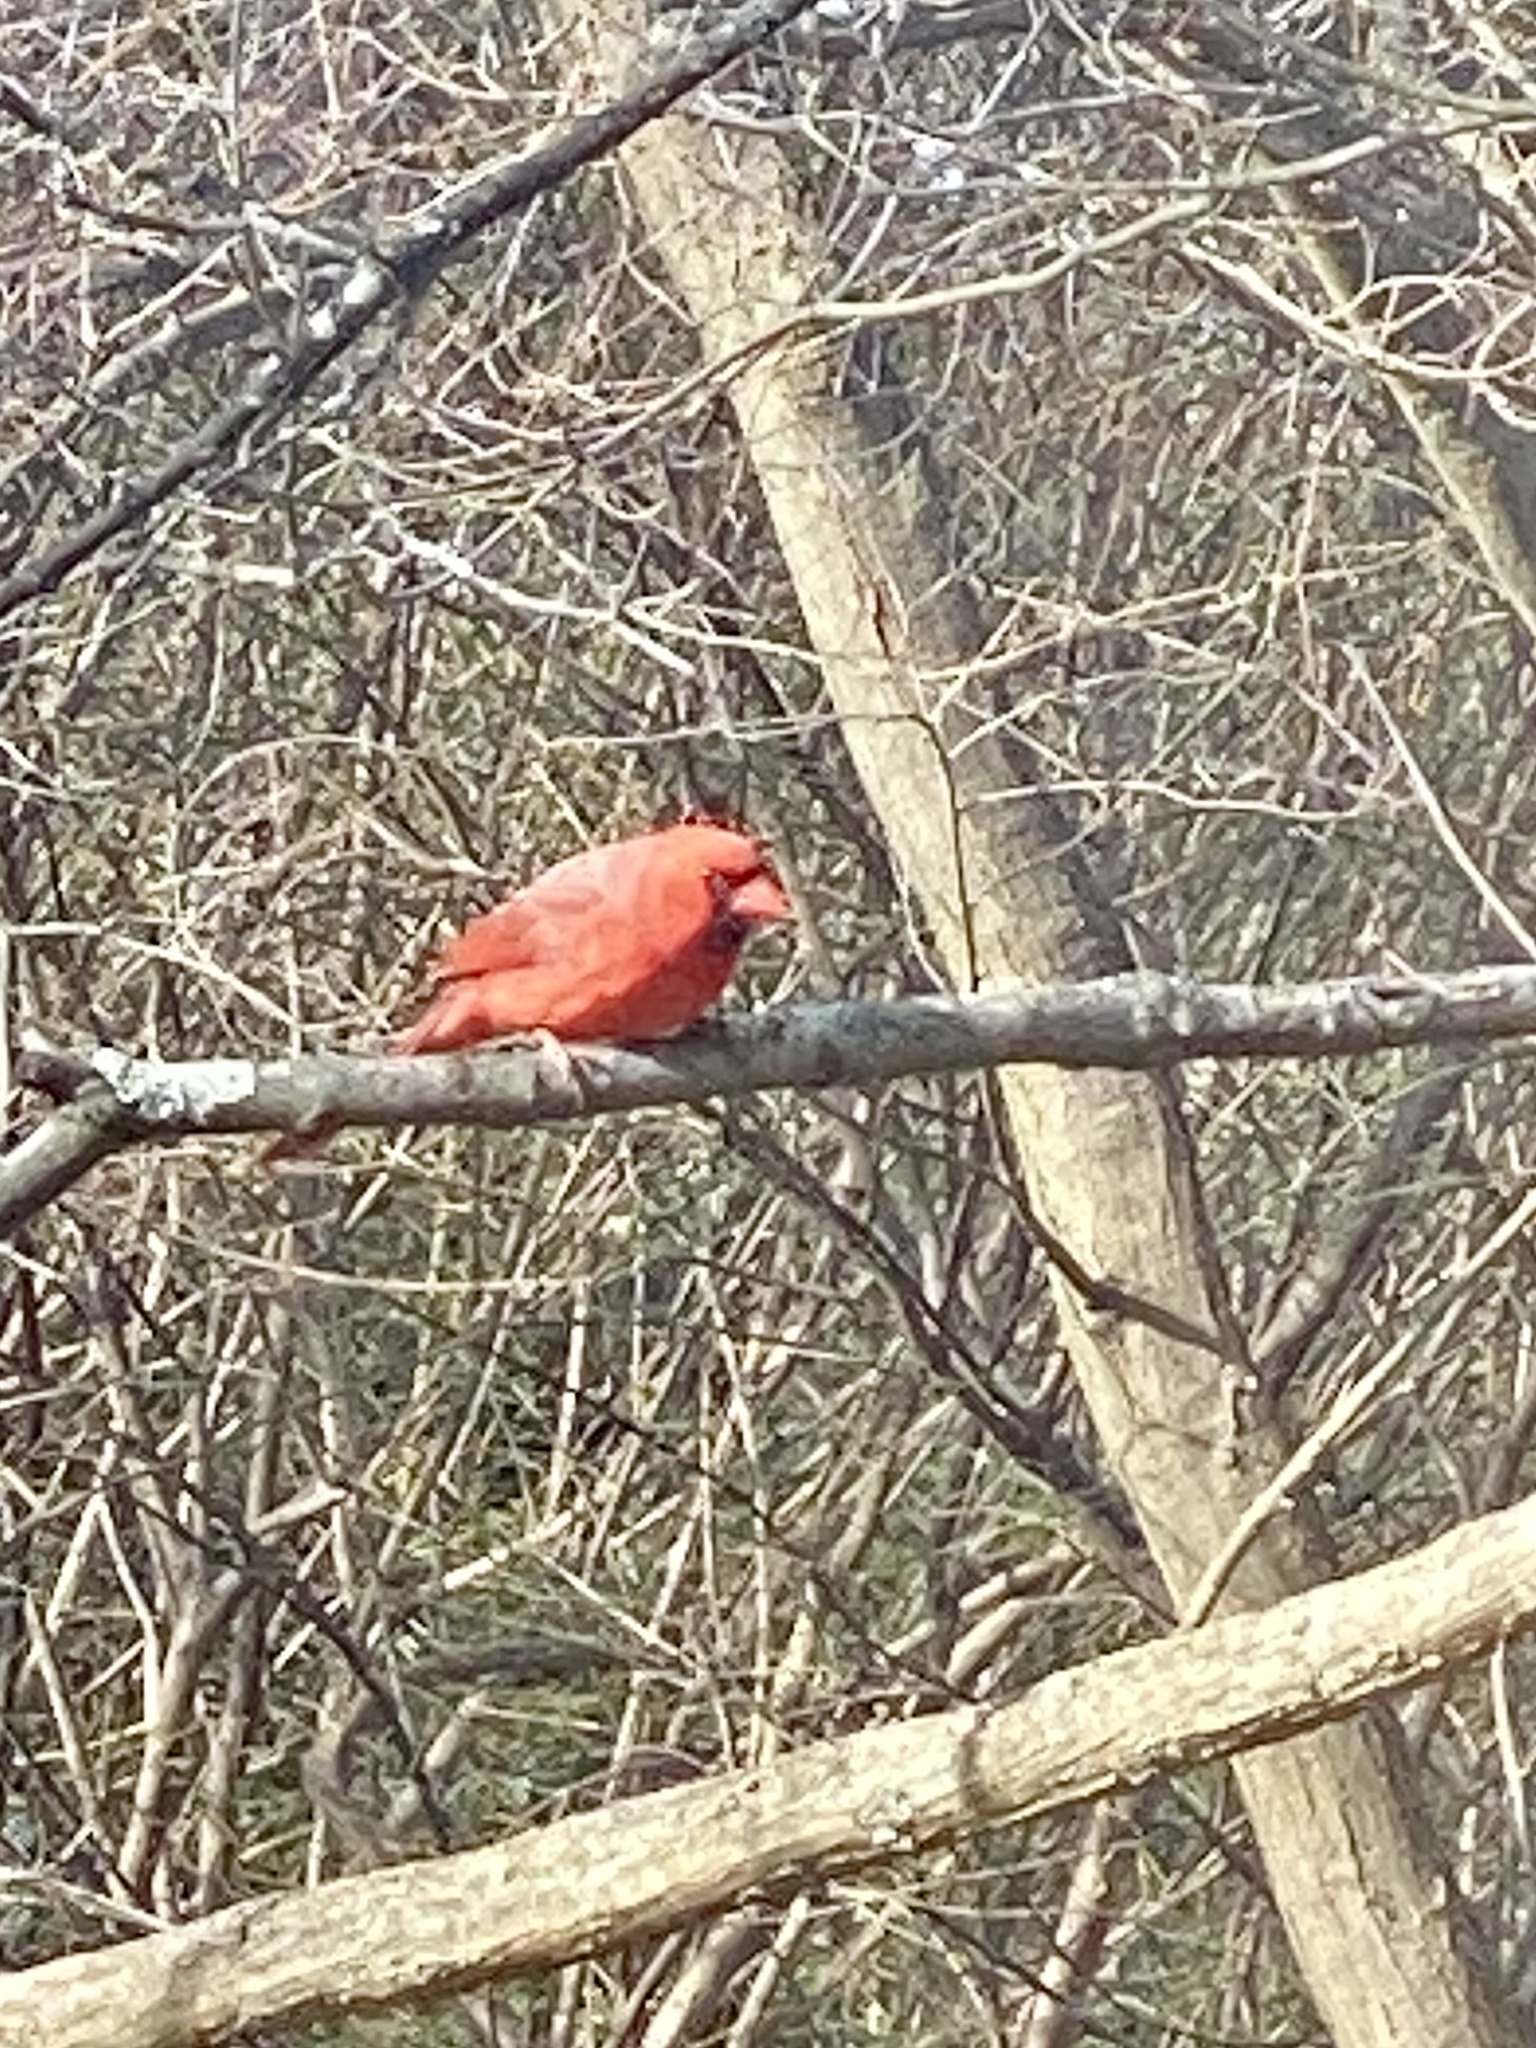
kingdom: Animalia
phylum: Chordata
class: Aves
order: Passeriformes
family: Cardinalidae
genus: Cardinalis
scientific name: Cardinalis cardinalis
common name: Northern cardinal
